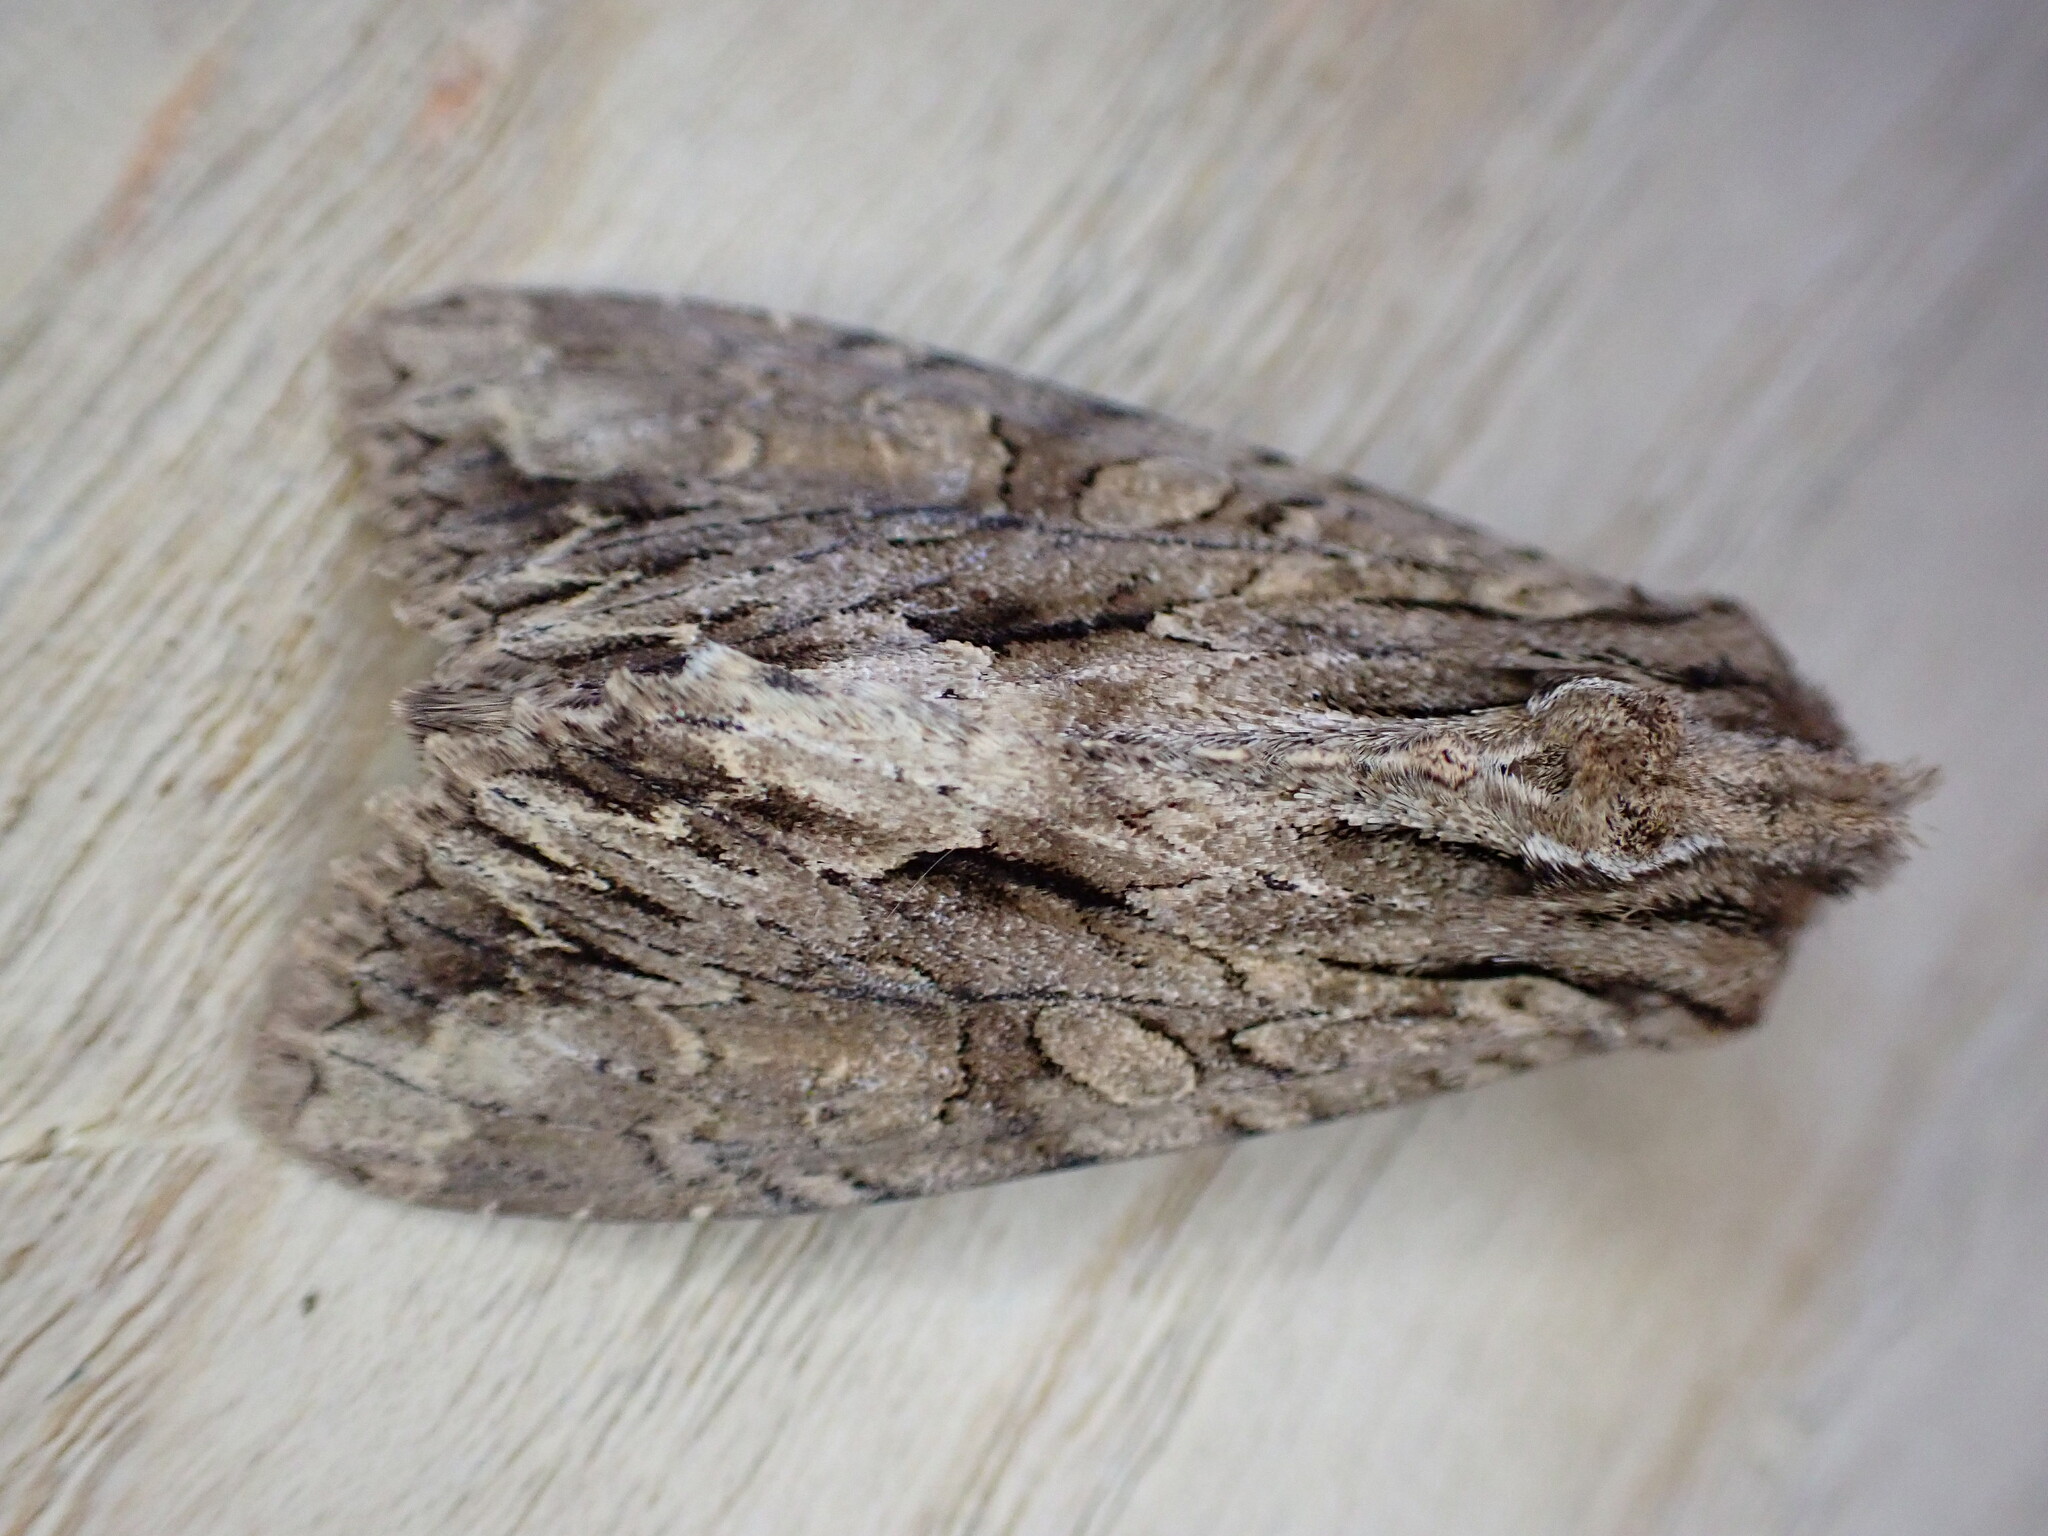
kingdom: Animalia
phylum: Arthropoda
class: Insecta
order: Lepidoptera
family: Noctuidae
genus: Apamea
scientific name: Apamea monoglypha
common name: Dark arches
